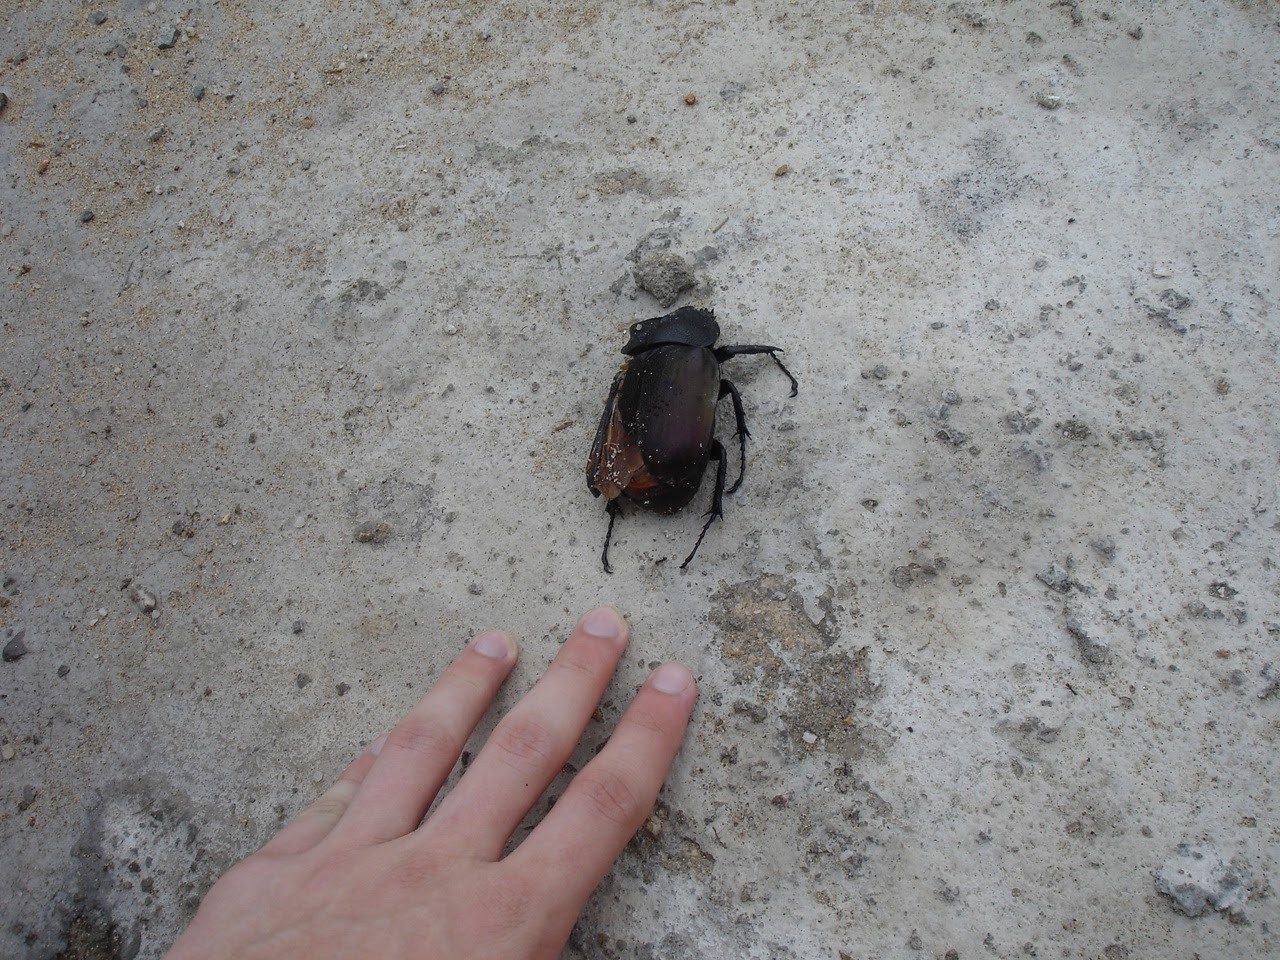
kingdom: Animalia
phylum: Arthropoda
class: Insecta
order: Coleoptera
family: Scarabaeidae
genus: Chalcosoma
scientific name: Chalcosoma atlas
